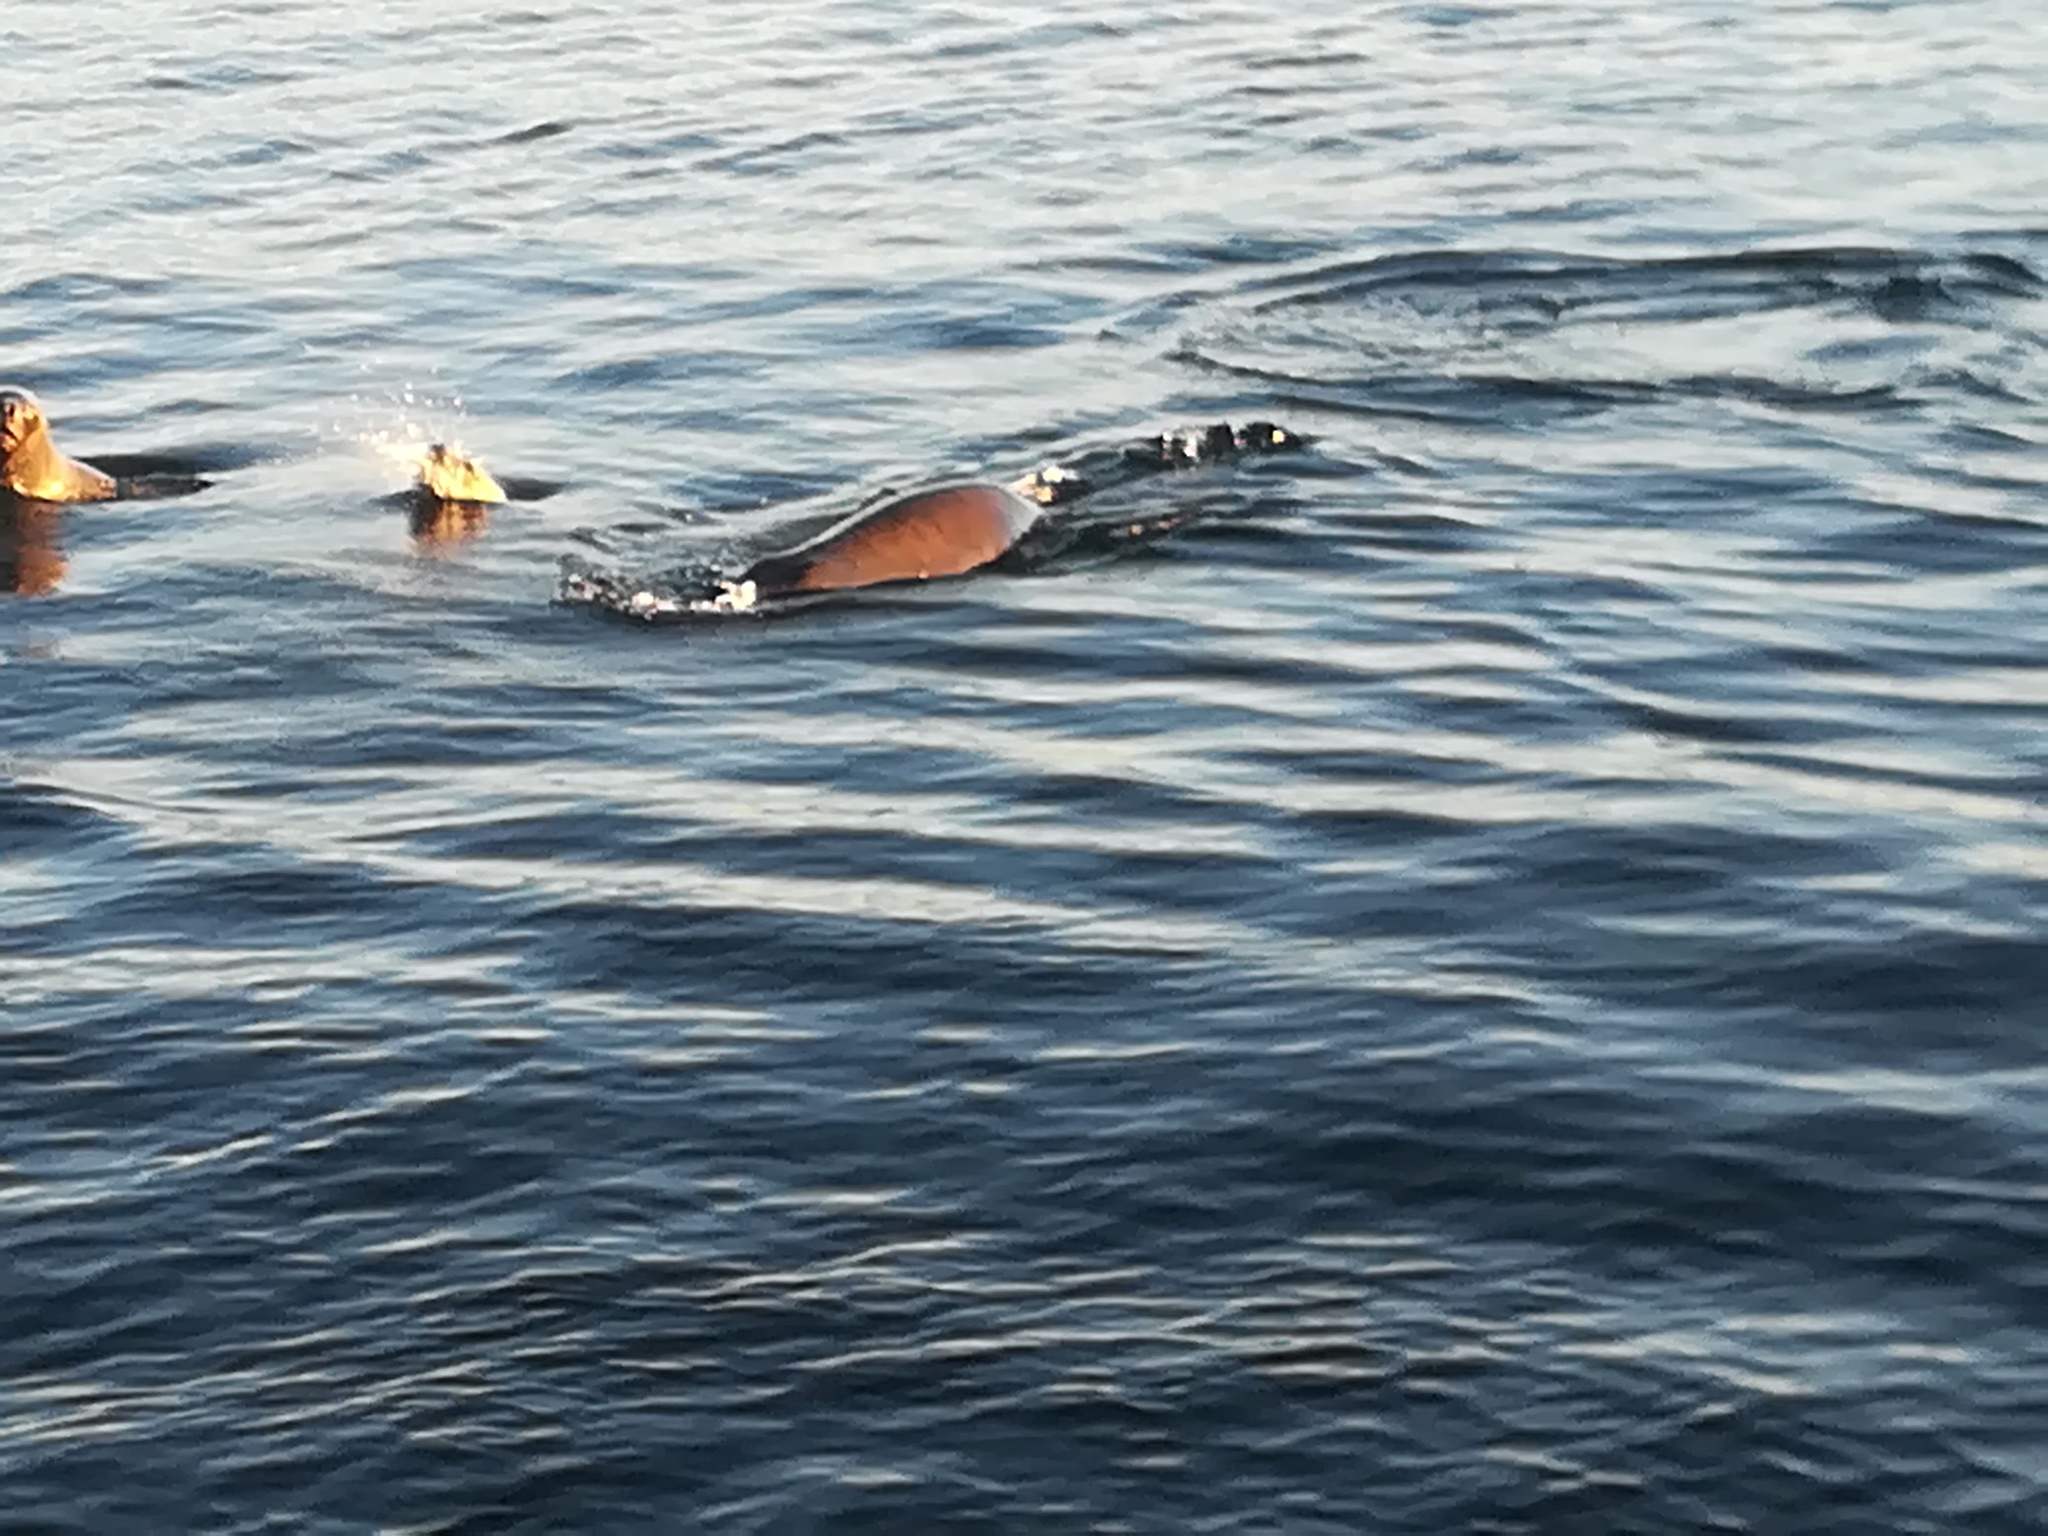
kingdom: Animalia
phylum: Chordata
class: Mammalia
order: Carnivora
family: Otariidae
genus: Otaria
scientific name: Otaria byronia
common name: South american sea lion
